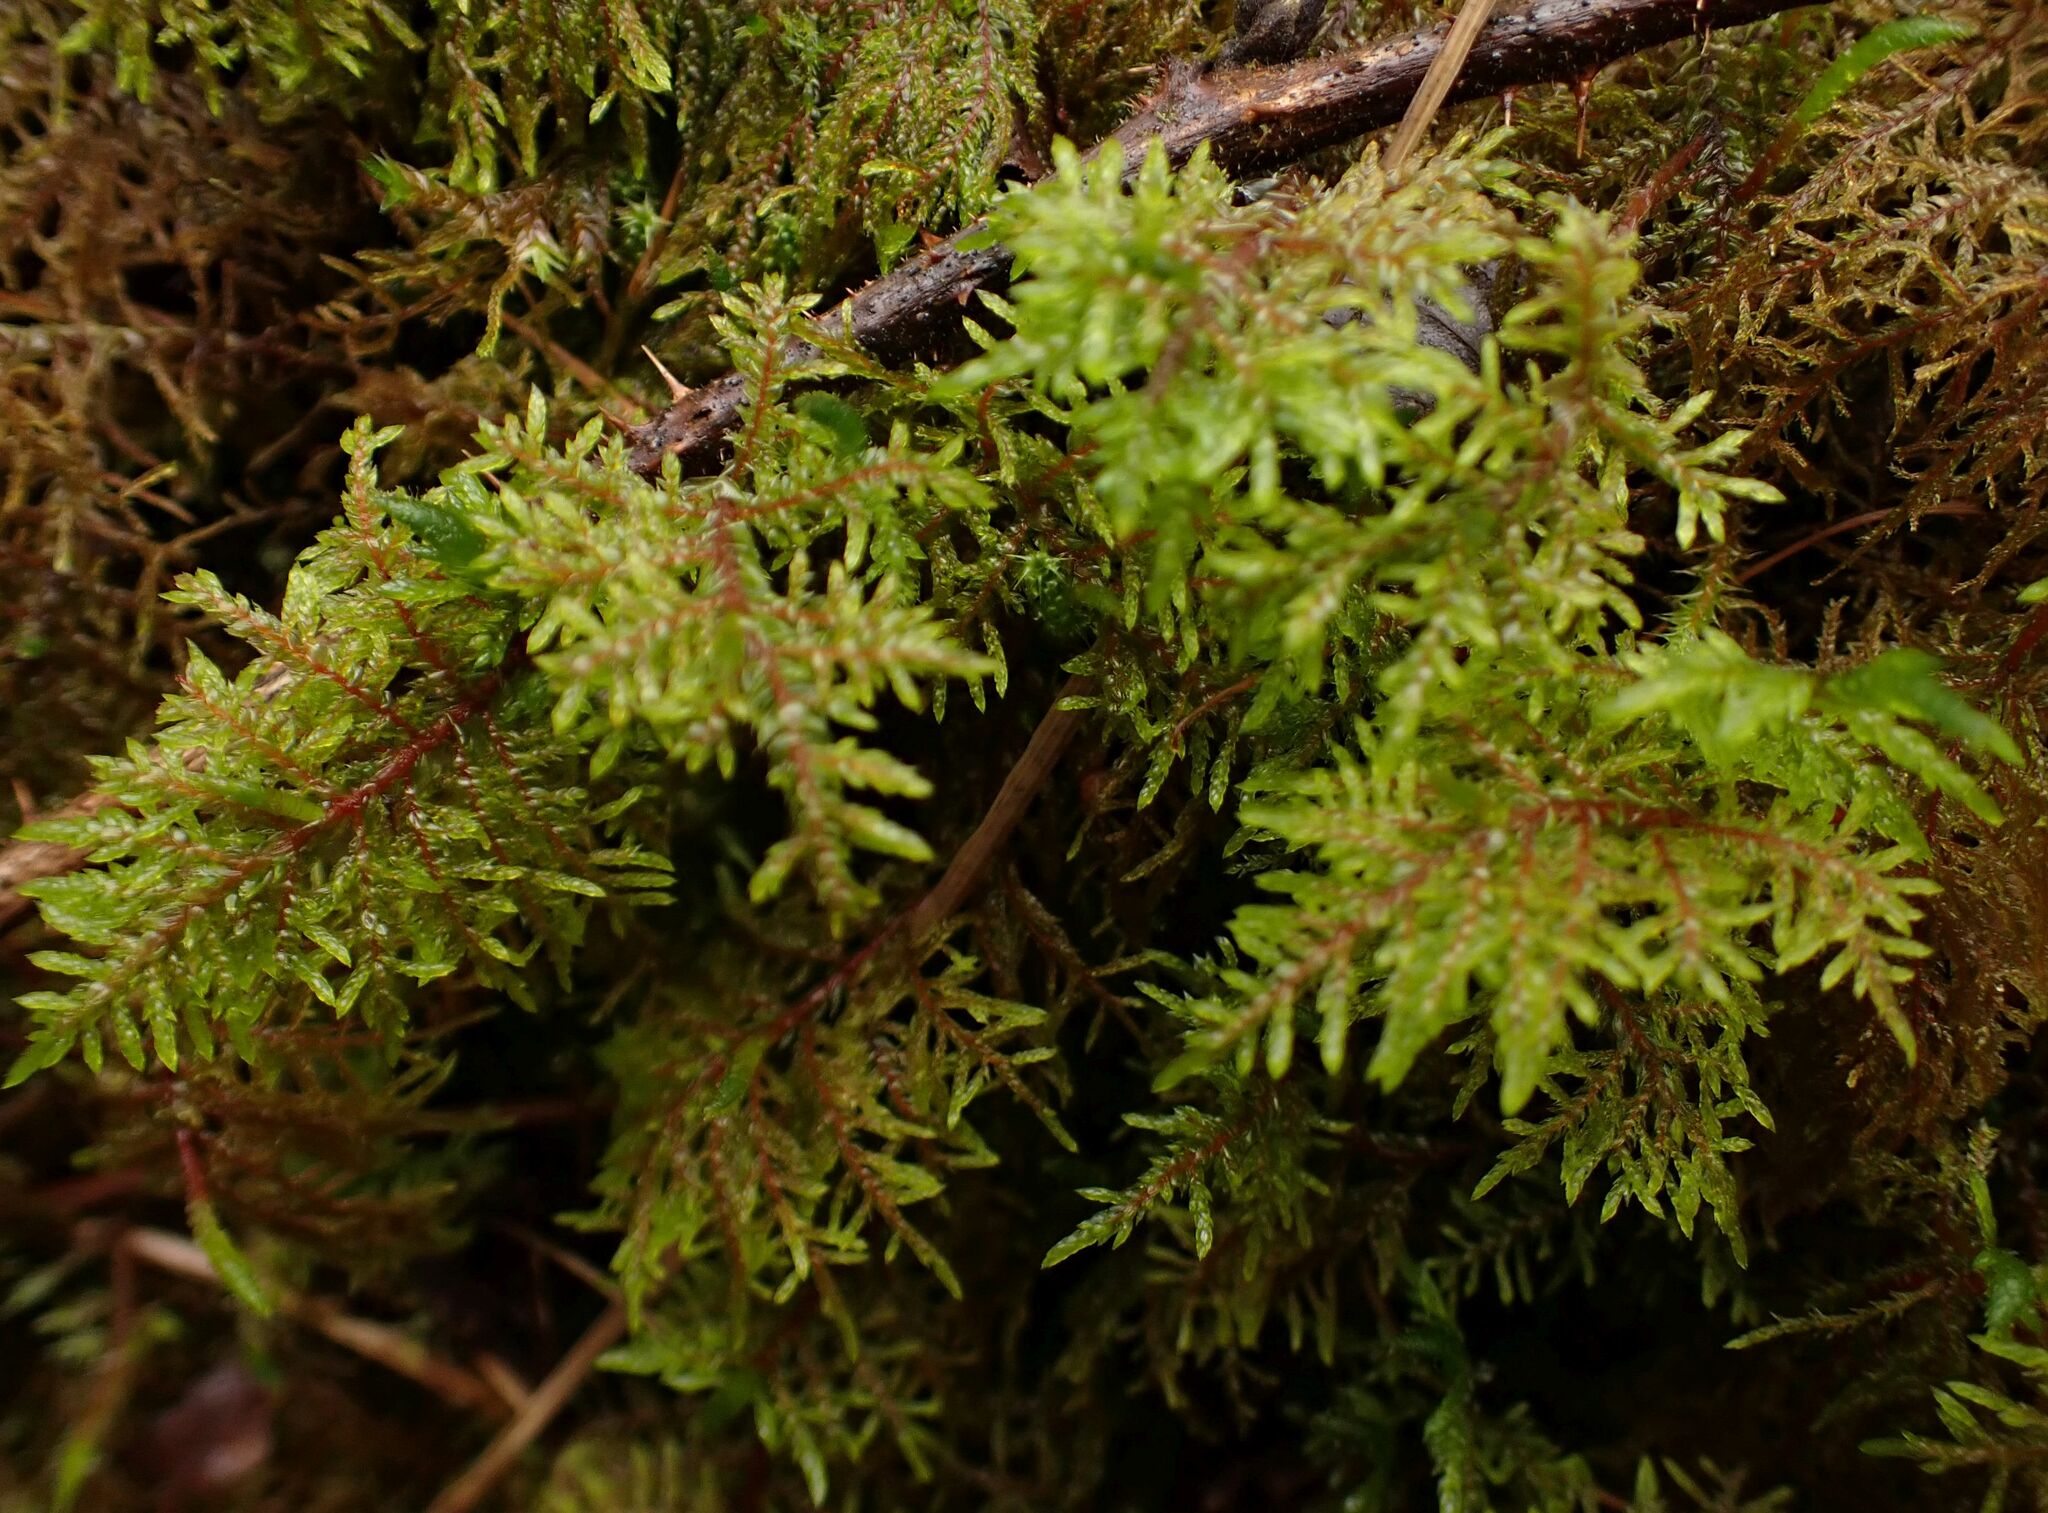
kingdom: Plantae
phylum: Bryophyta
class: Bryopsida
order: Hypnales
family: Hylocomiaceae
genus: Hylocomium
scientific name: Hylocomium splendens
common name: Stairstep moss
